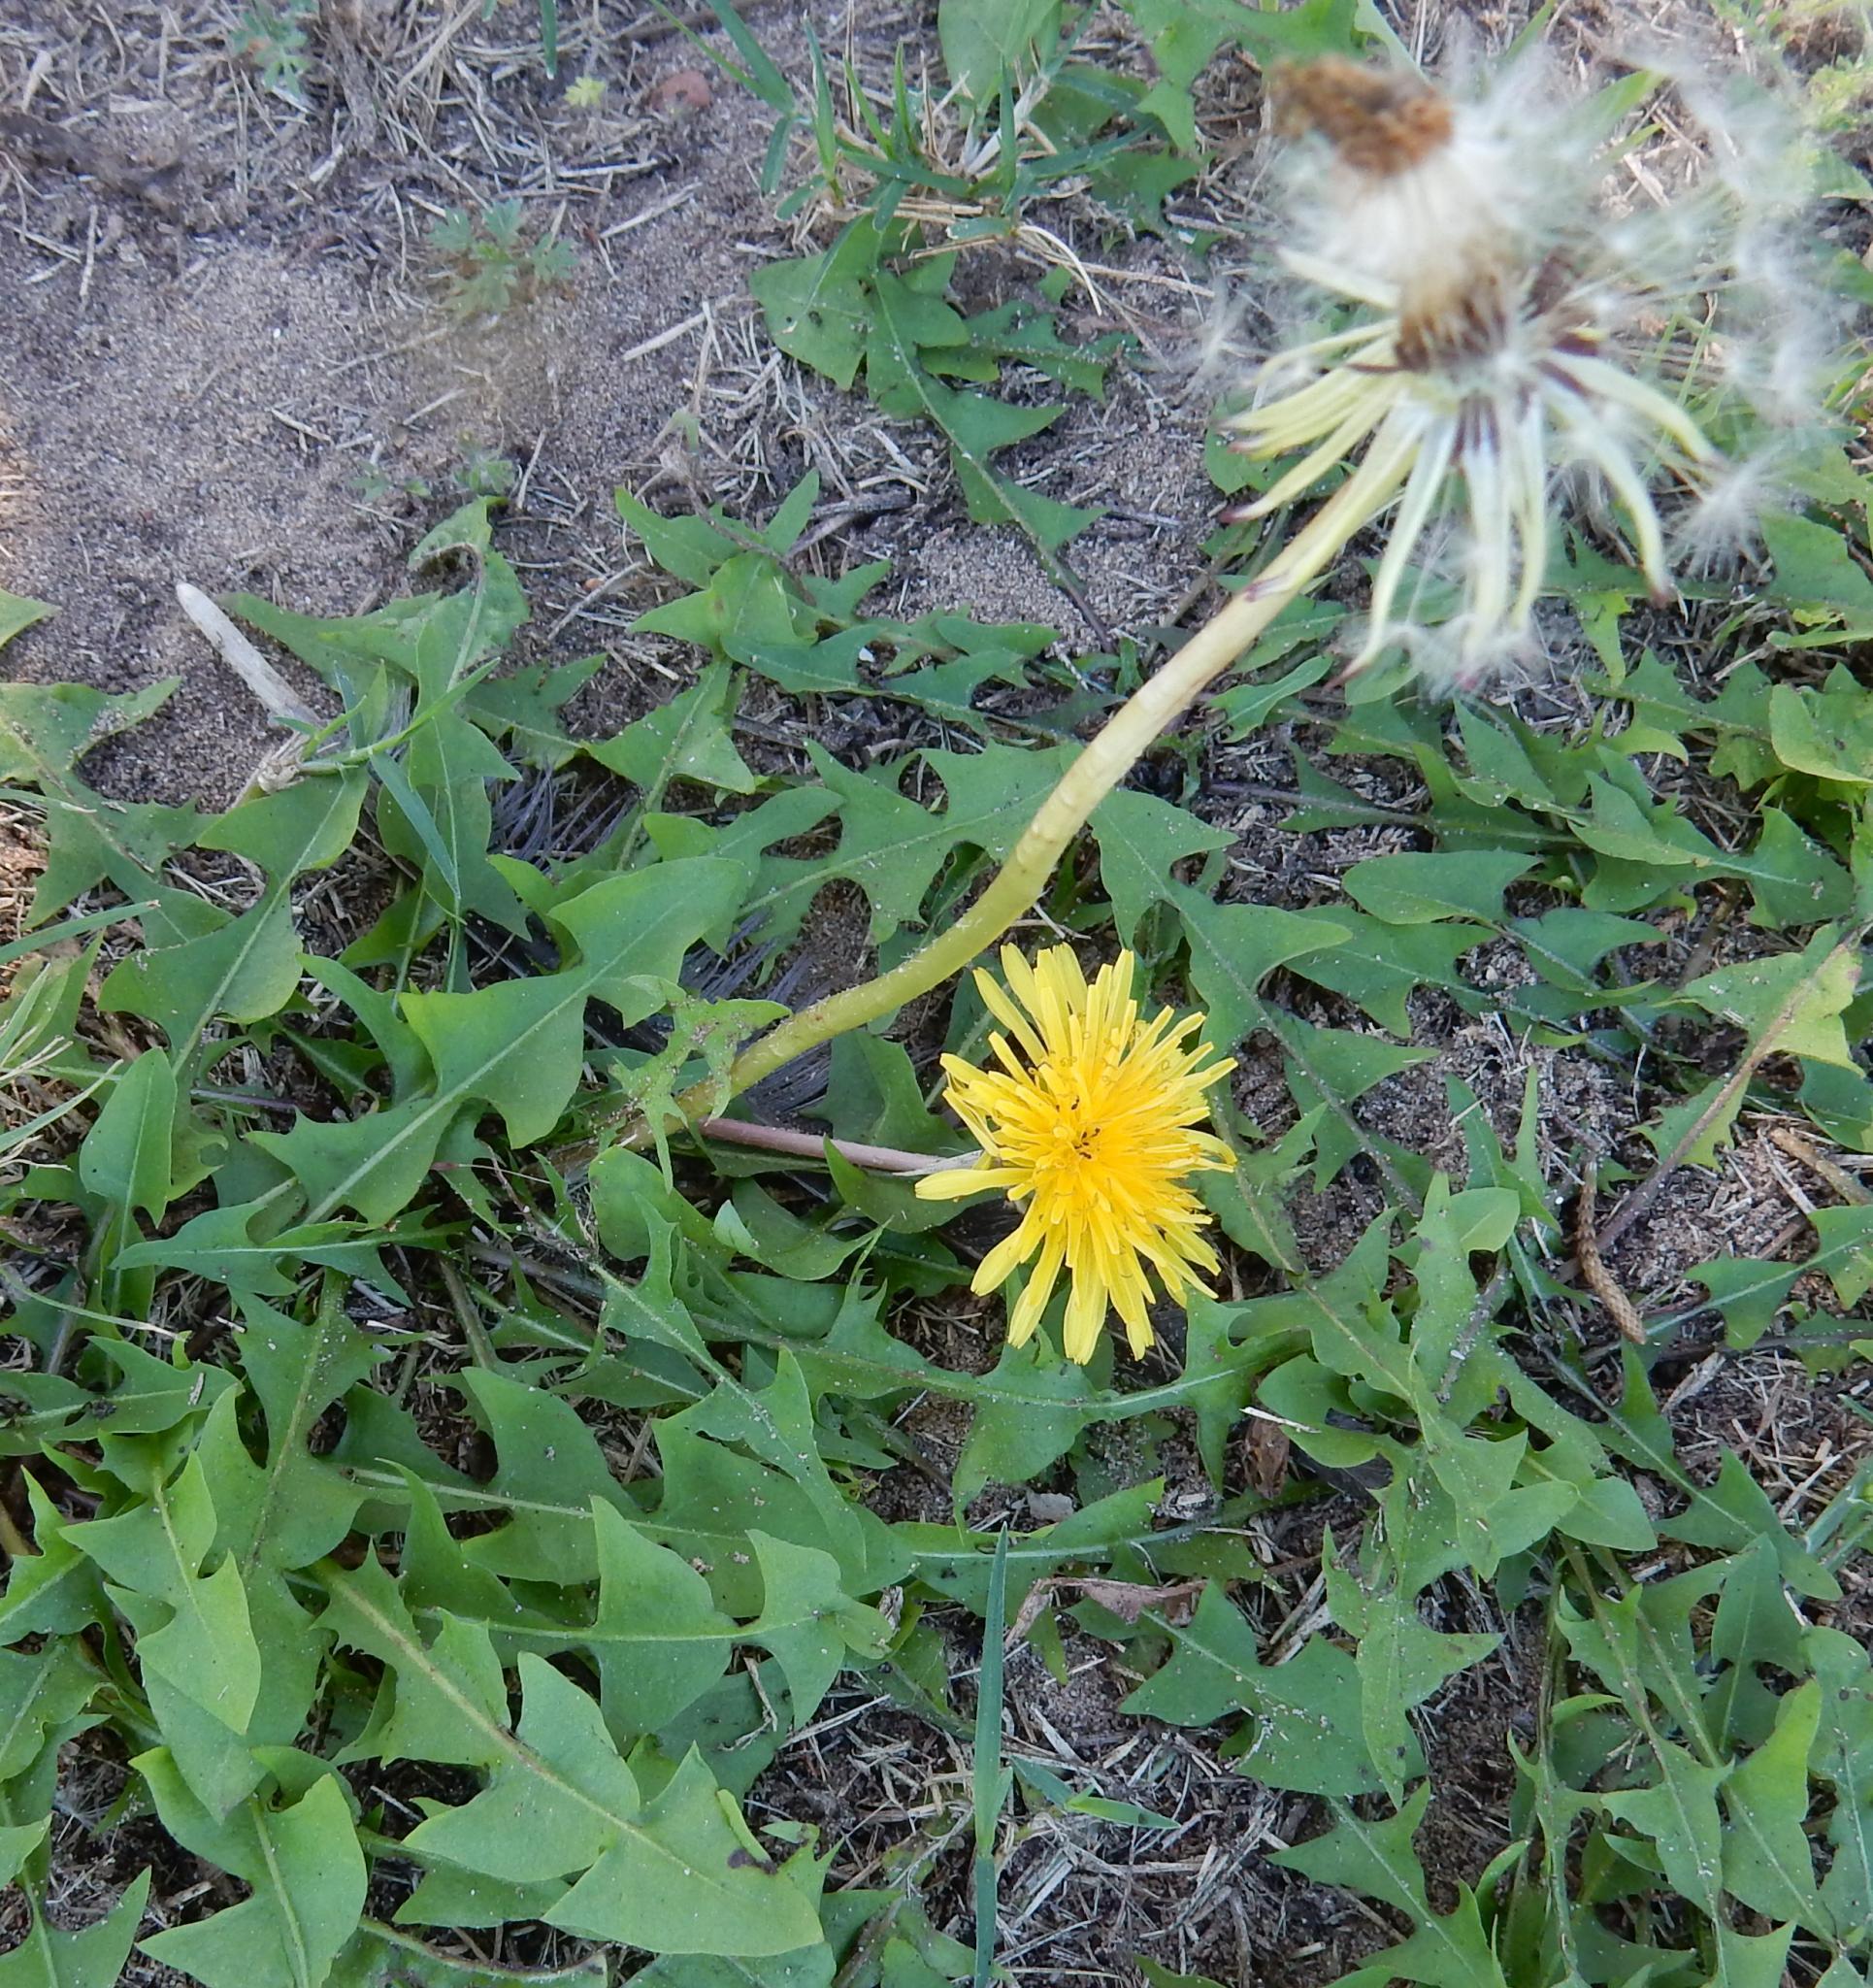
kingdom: Plantae
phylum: Tracheophyta
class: Magnoliopsida
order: Asterales
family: Asteraceae
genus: Taraxacum
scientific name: Taraxacum officinale
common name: Common dandelion
